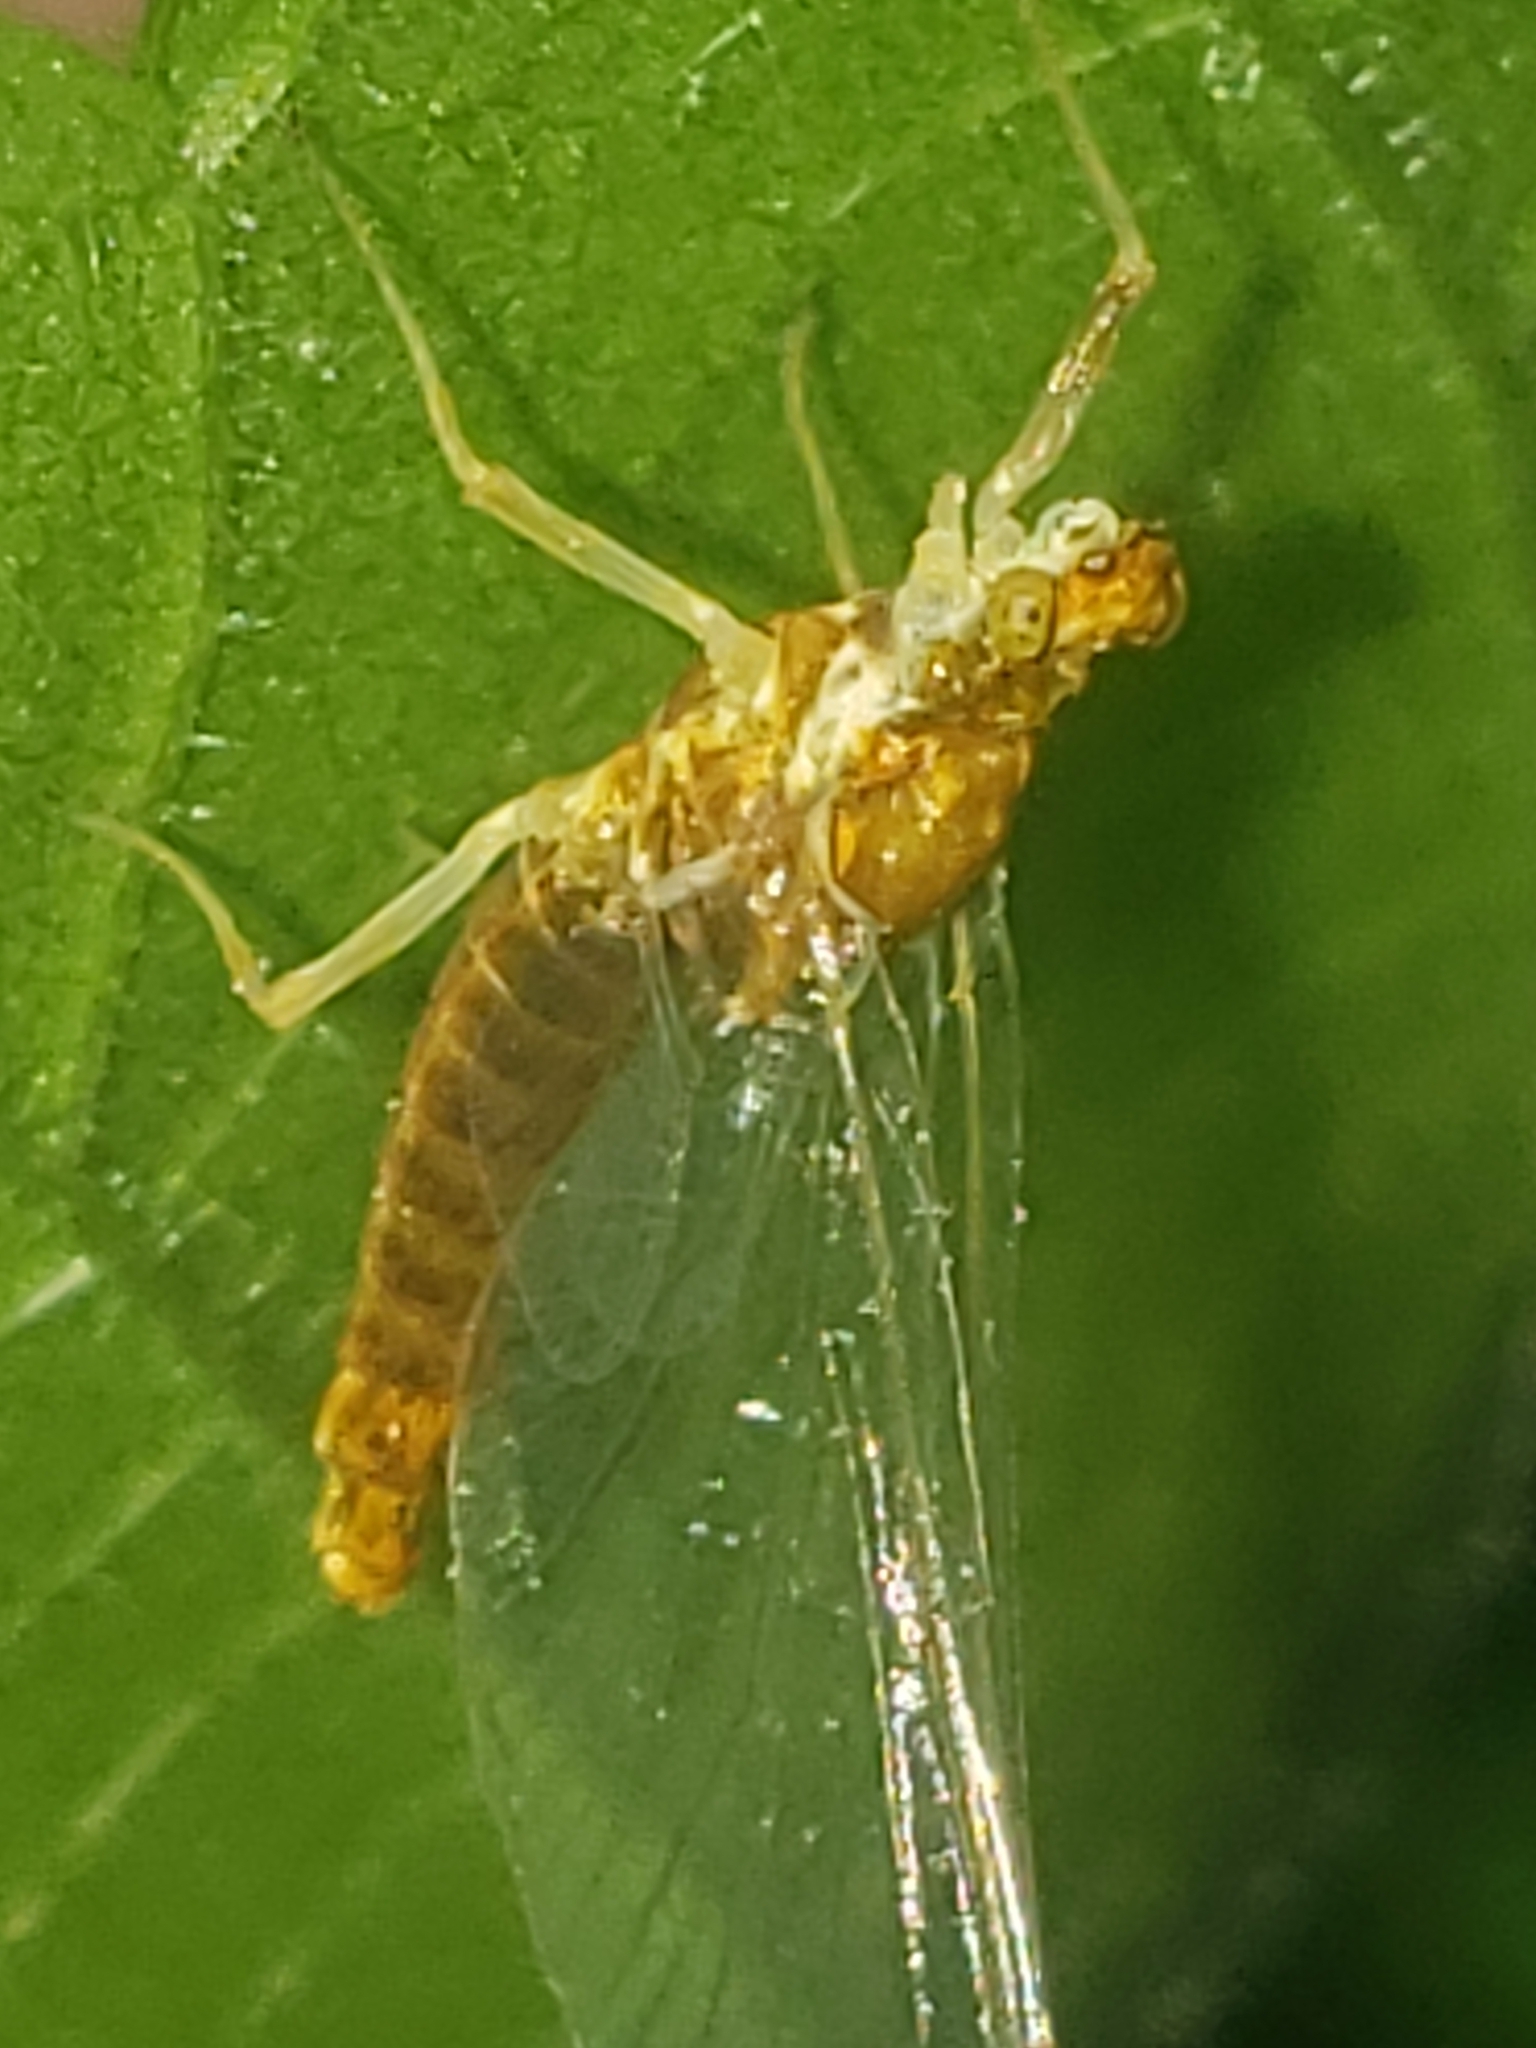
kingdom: Animalia
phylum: Arthropoda
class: Insecta
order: Ephemeroptera
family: Ephemerellidae
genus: Ephemerella
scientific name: Ephemerella needhami
